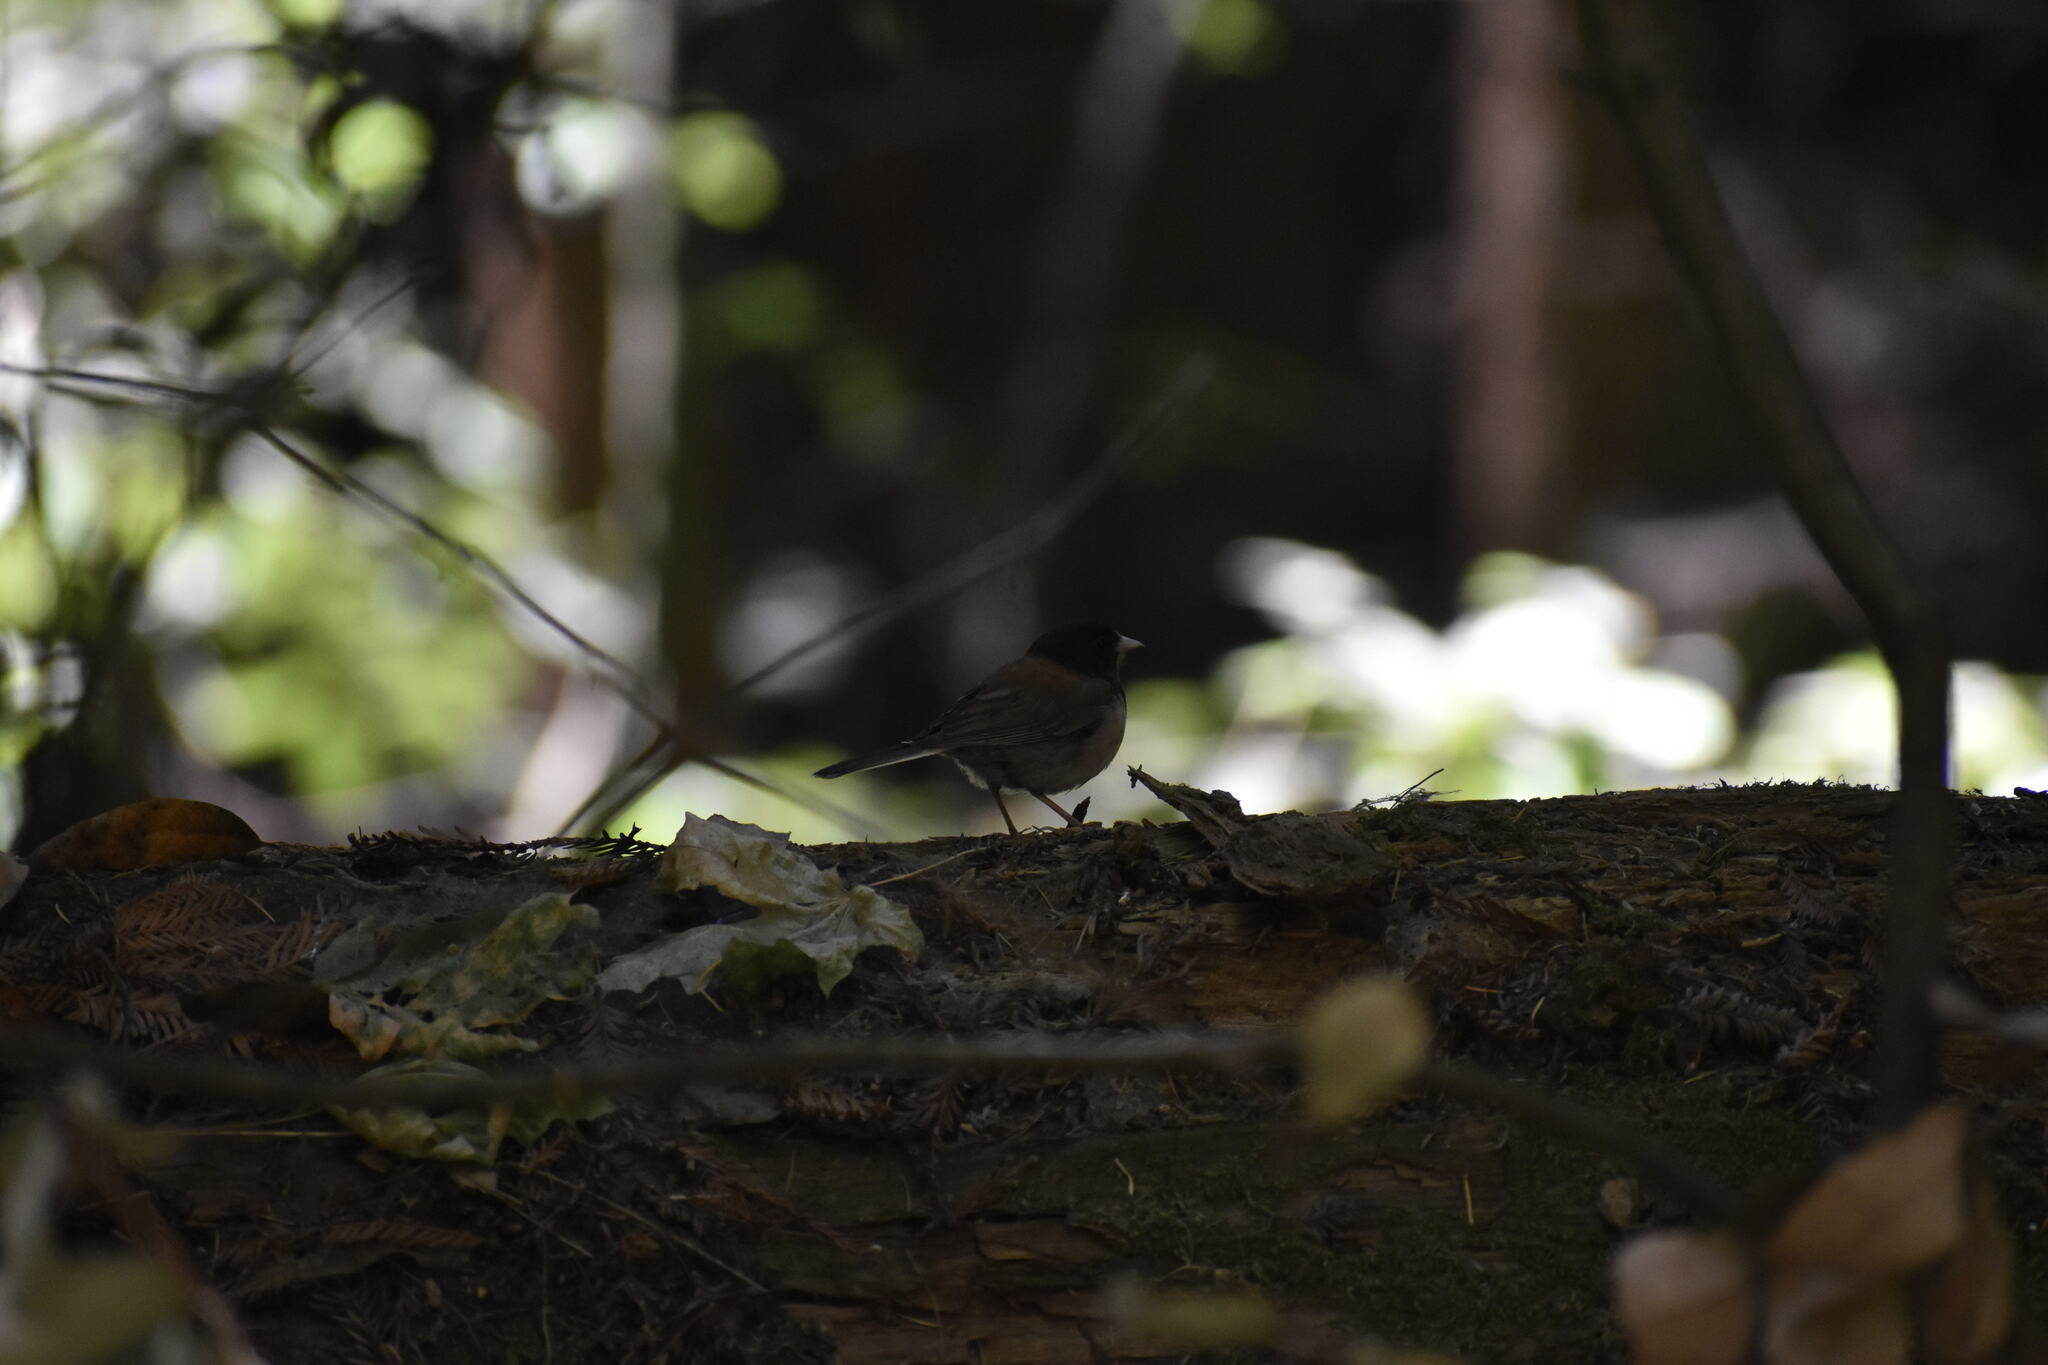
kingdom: Animalia
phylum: Chordata
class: Aves
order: Passeriformes
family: Passerellidae
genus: Junco
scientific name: Junco hyemalis
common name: Dark-eyed junco
